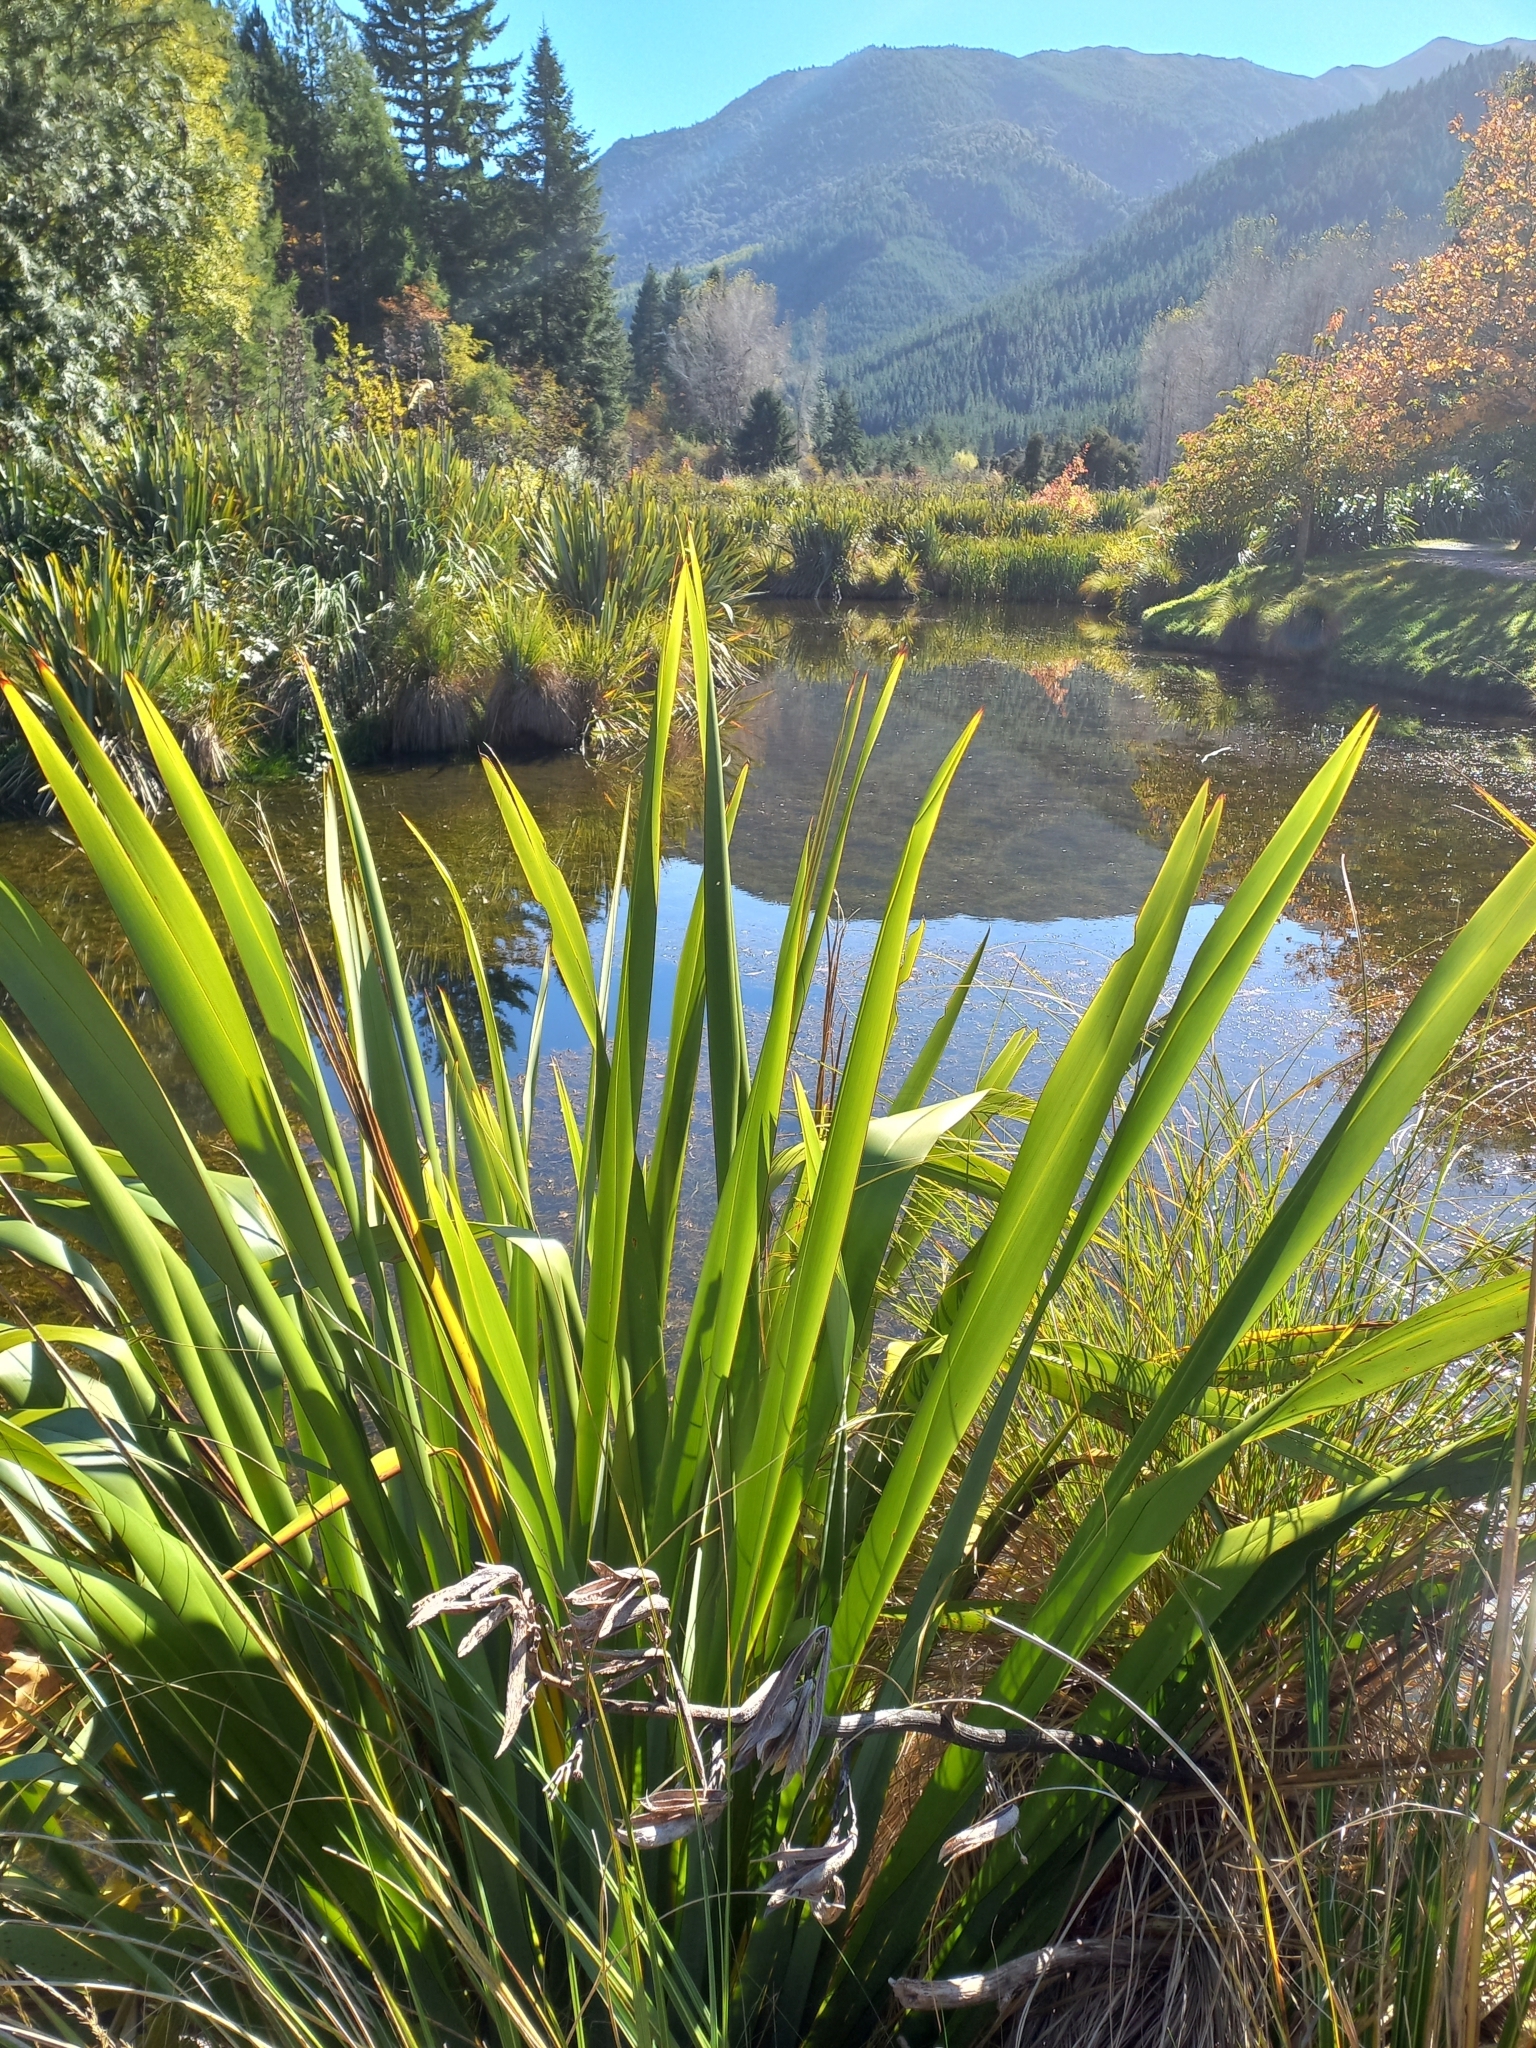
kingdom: Plantae
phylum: Tracheophyta
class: Liliopsida
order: Asparagales
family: Asphodelaceae
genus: Phormium
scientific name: Phormium tenax
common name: New zealand flax
